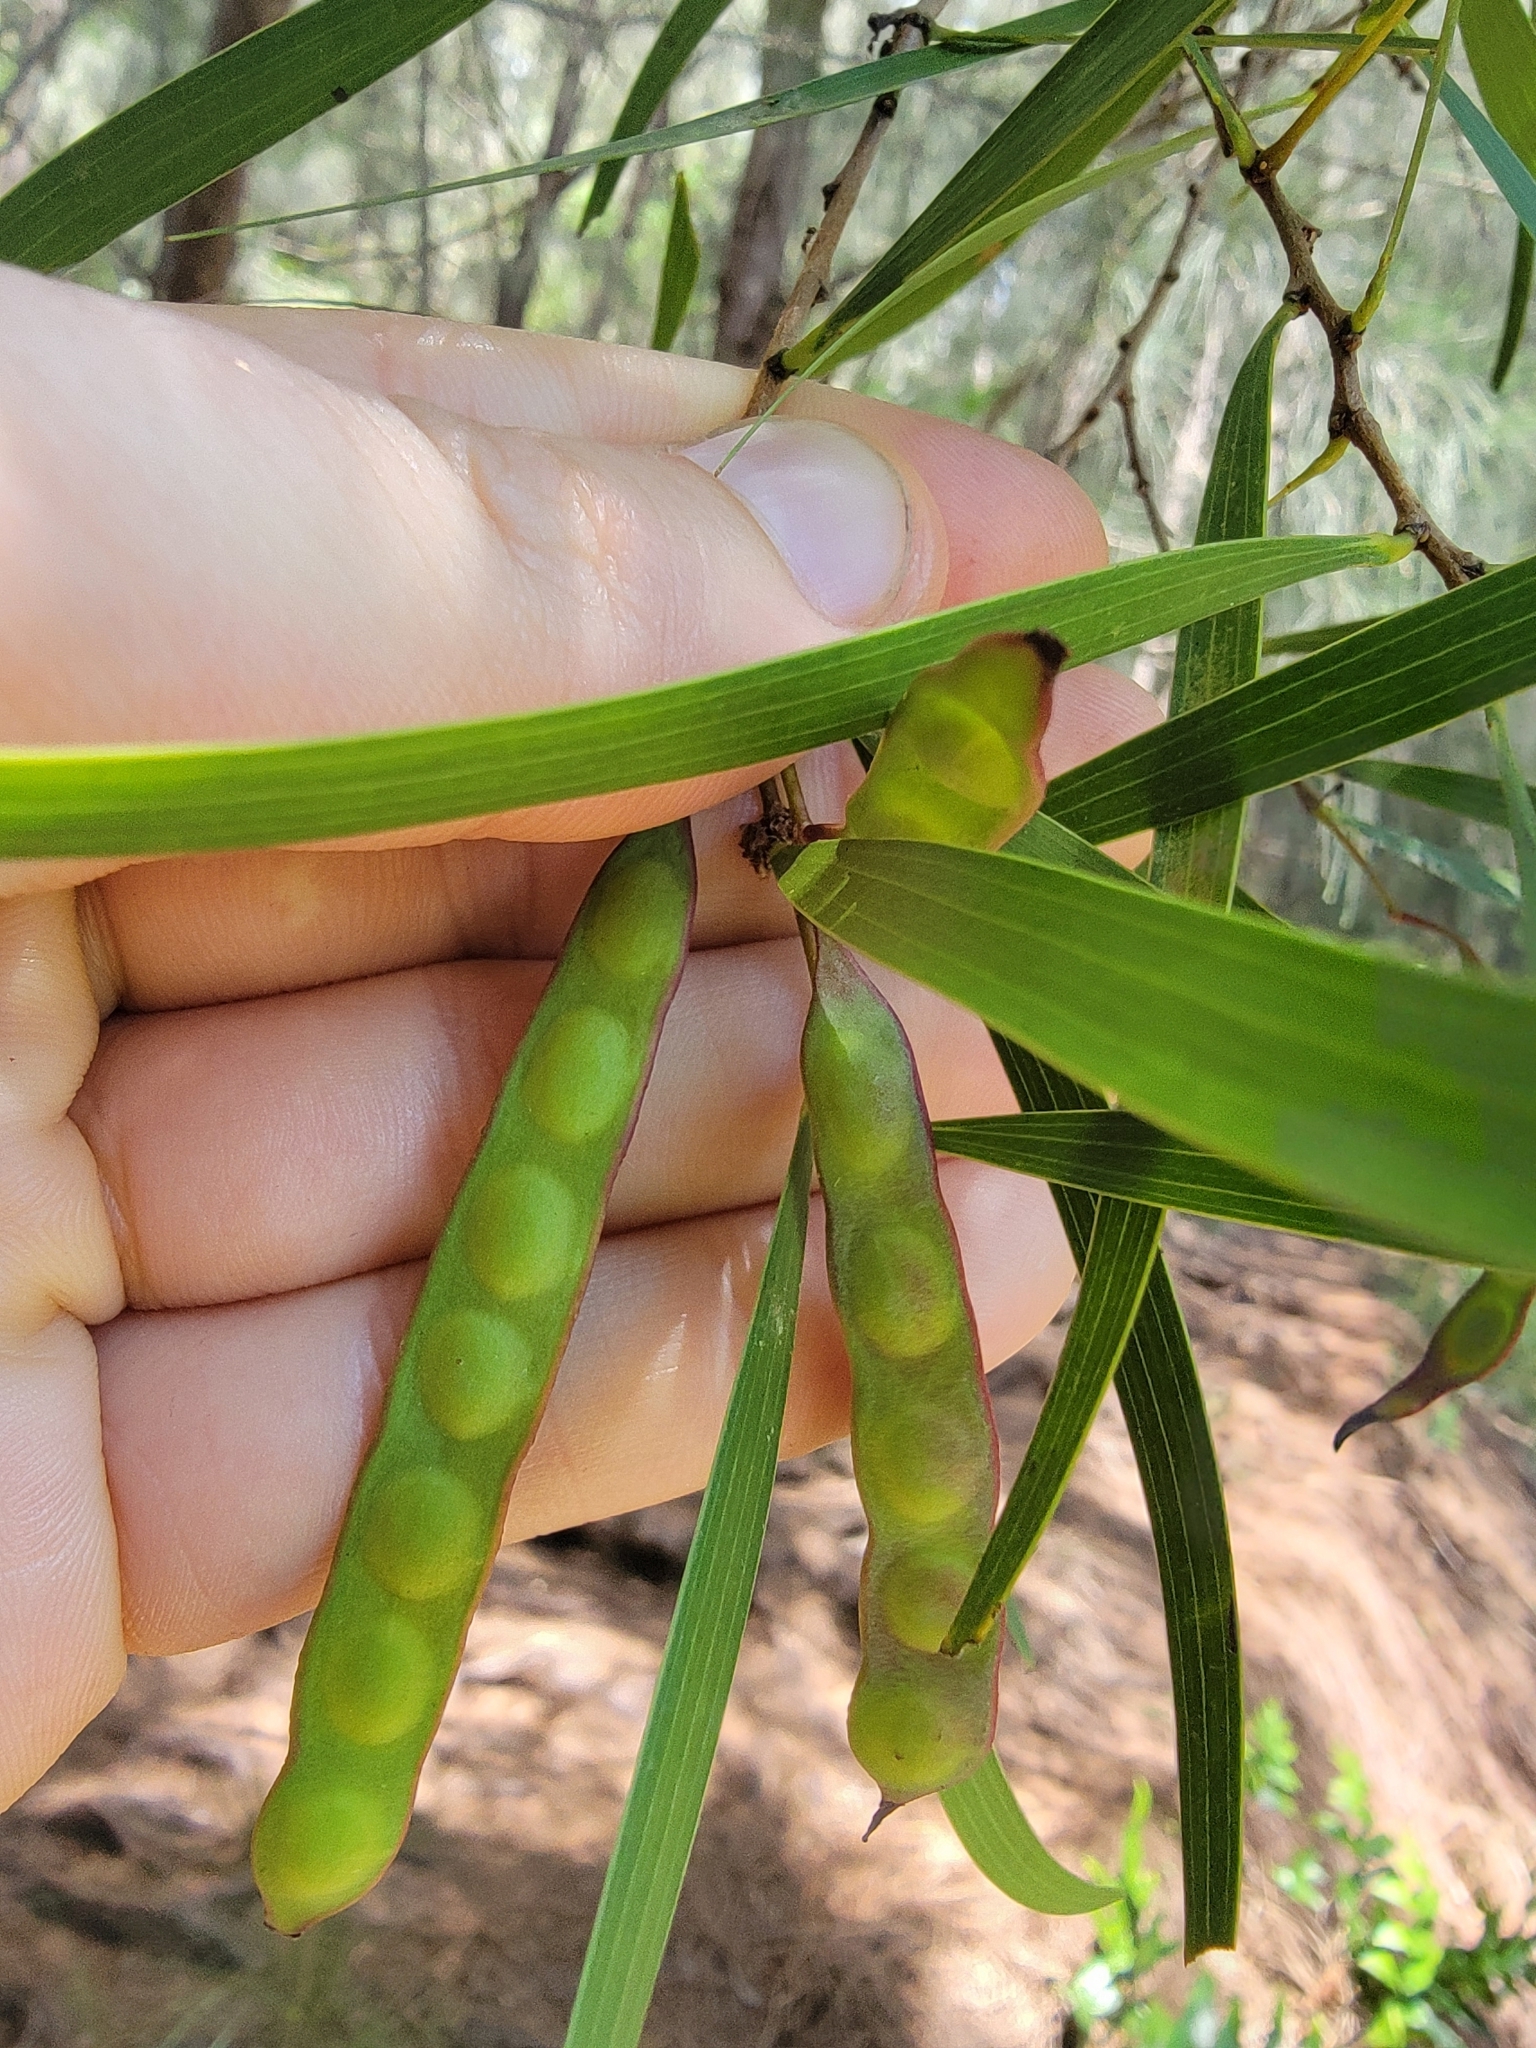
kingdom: Plantae
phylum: Tracheophyta
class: Magnoliopsida
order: Fabales
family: Fabaceae
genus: Acacia
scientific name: Acacia confusa
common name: Formosan koa
